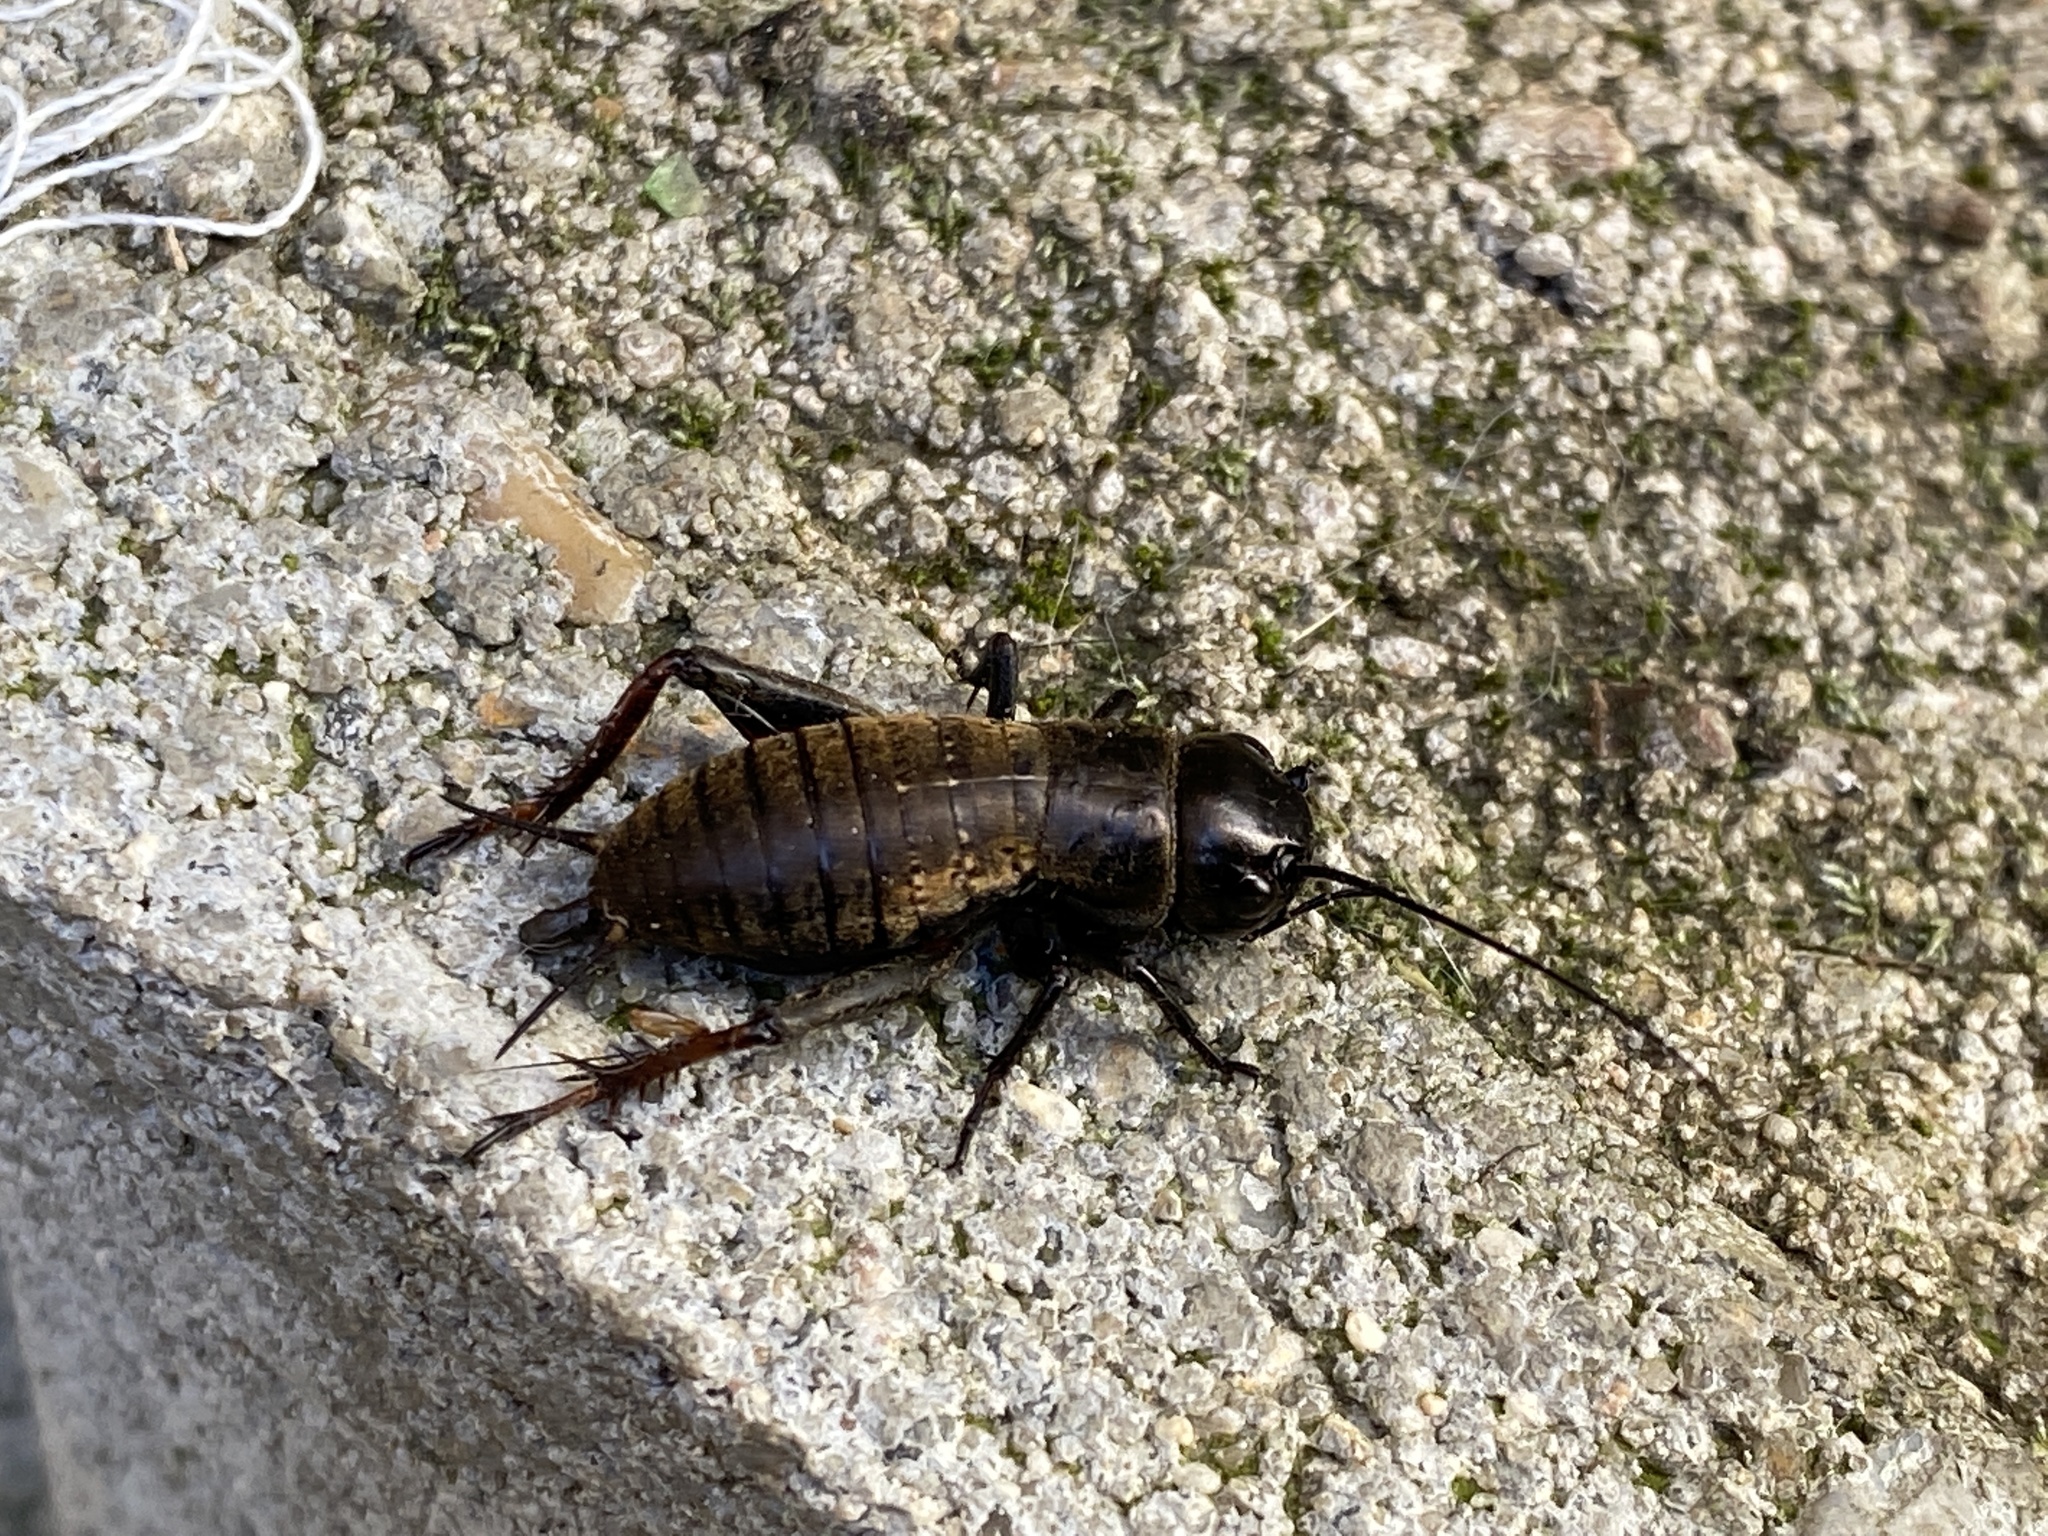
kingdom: Animalia
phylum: Arthropoda
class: Insecta
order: Orthoptera
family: Gryllidae
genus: Gryllus
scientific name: Gryllus campestris
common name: Field cricket
